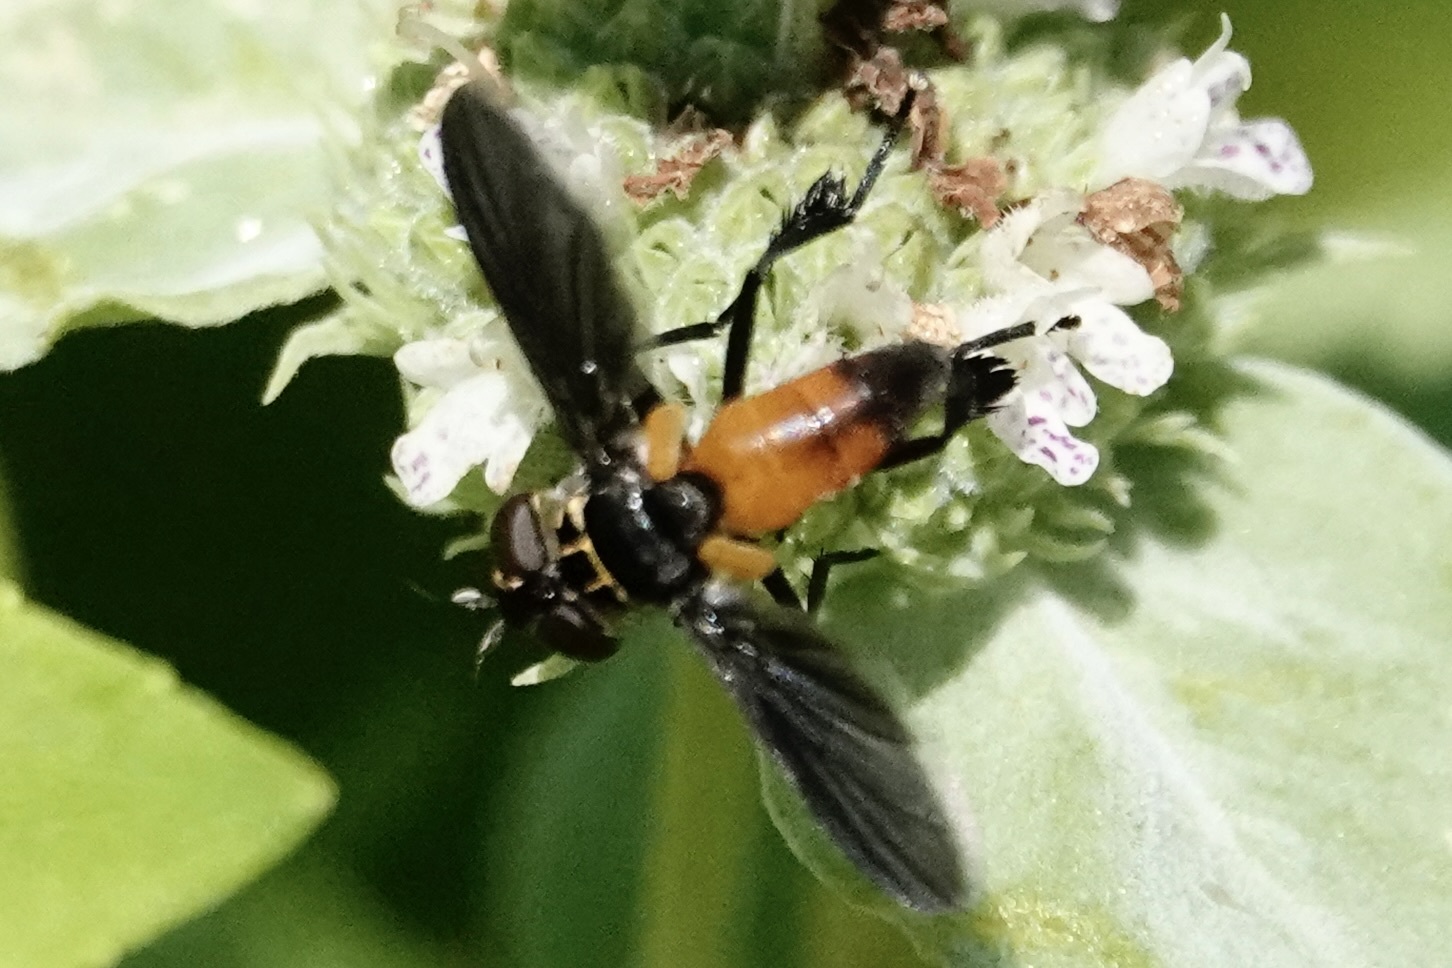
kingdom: Animalia
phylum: Arthropoda
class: Insecta
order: Diptera
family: Tachinidae
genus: Trichopoda
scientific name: Trichopoda pennipes
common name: Tachinid fly
